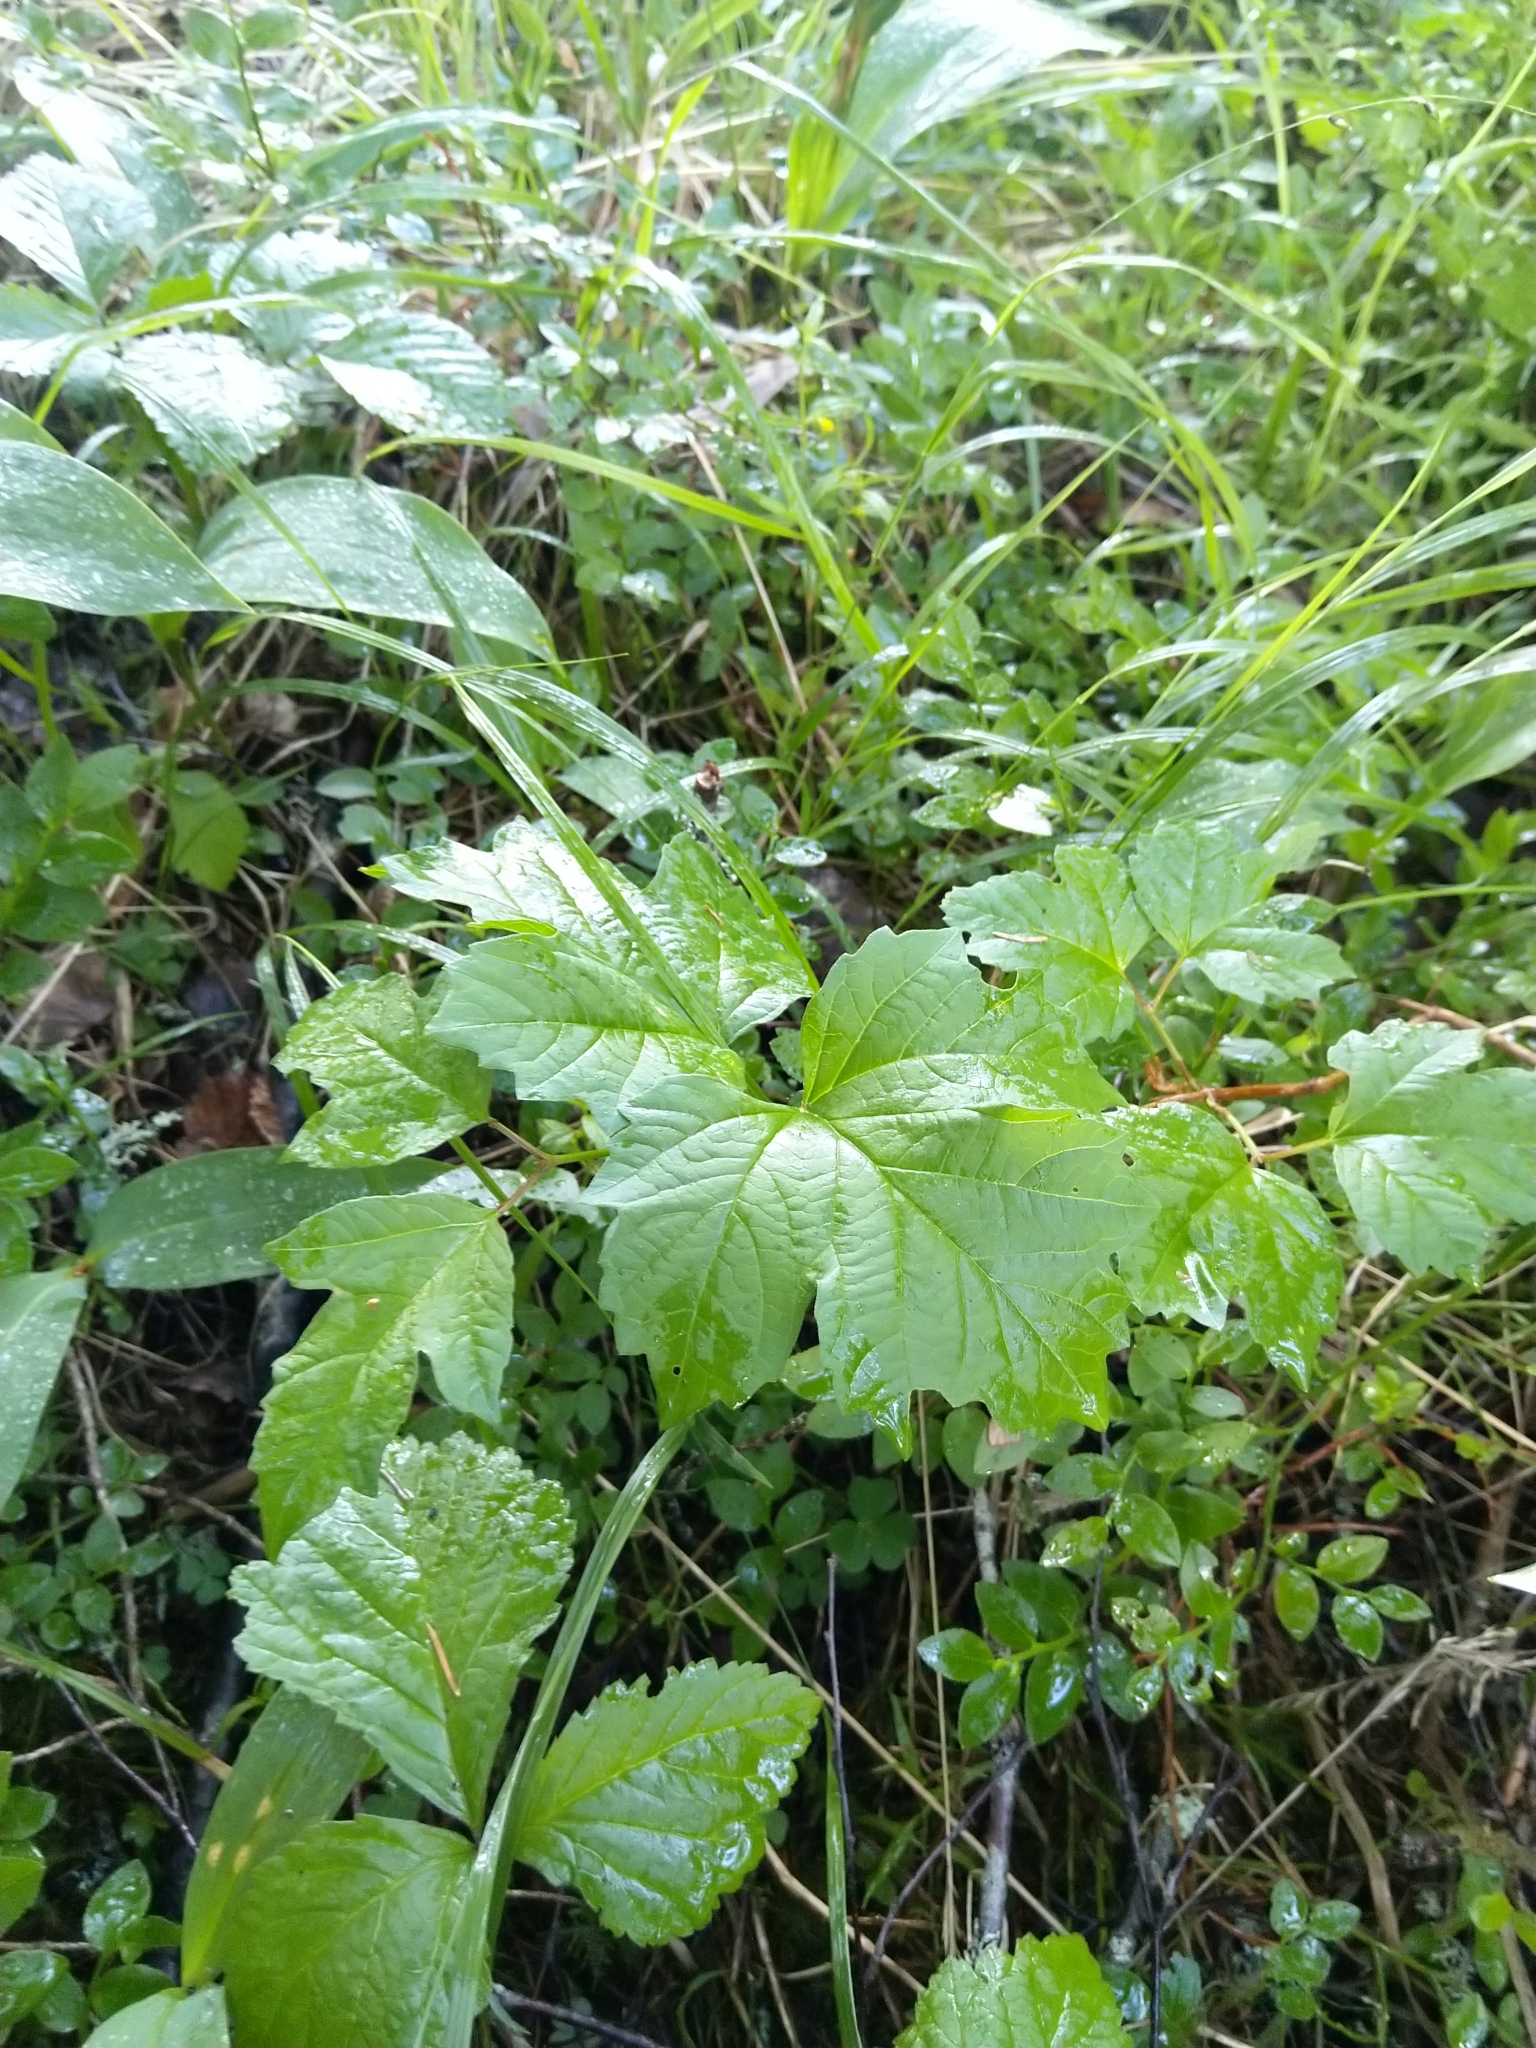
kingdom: Plantae
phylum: Tracheophyta
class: Magnoliopsida
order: Dipsacales
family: Viburnaceae
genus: Viburnum
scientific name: Viburnum opulus
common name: Guelder-rose
